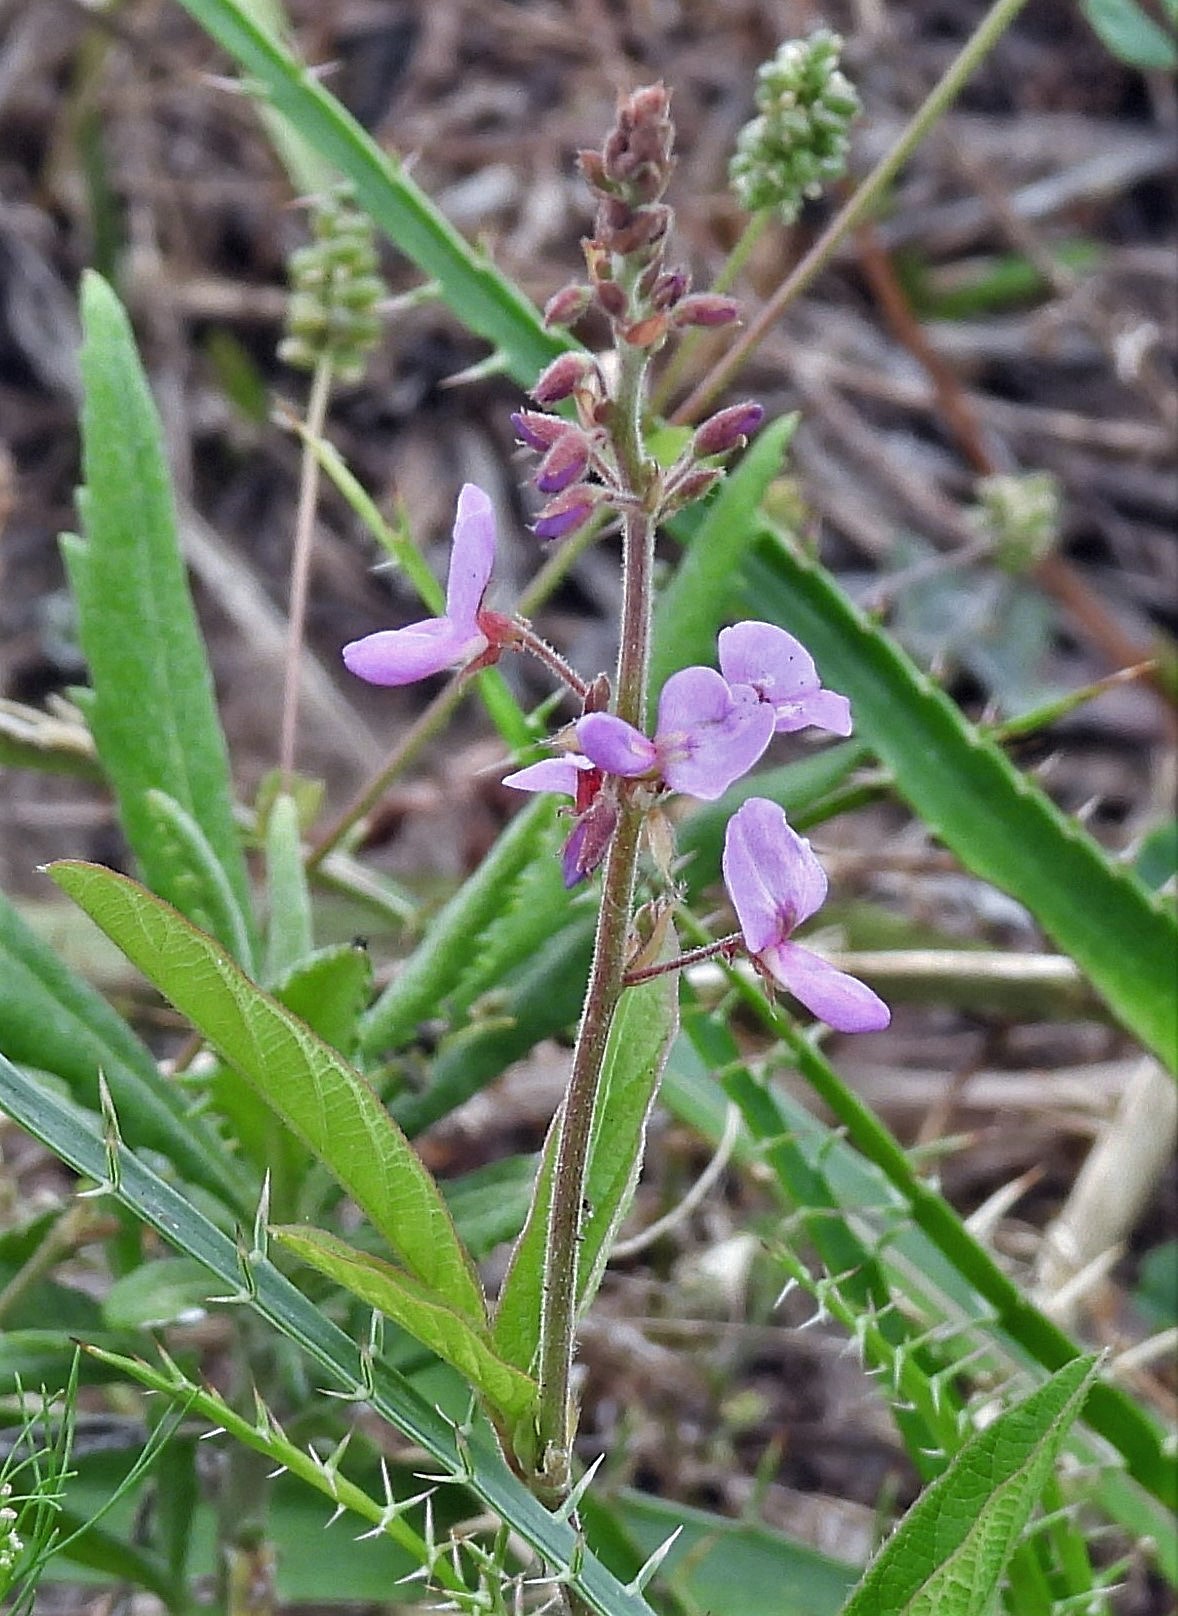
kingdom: Plantae
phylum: Tracheophyta
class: Magnoliopsida
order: Fabales
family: Fabaceae
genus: Desmodium
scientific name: Desmodium incanum
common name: Tickclover
